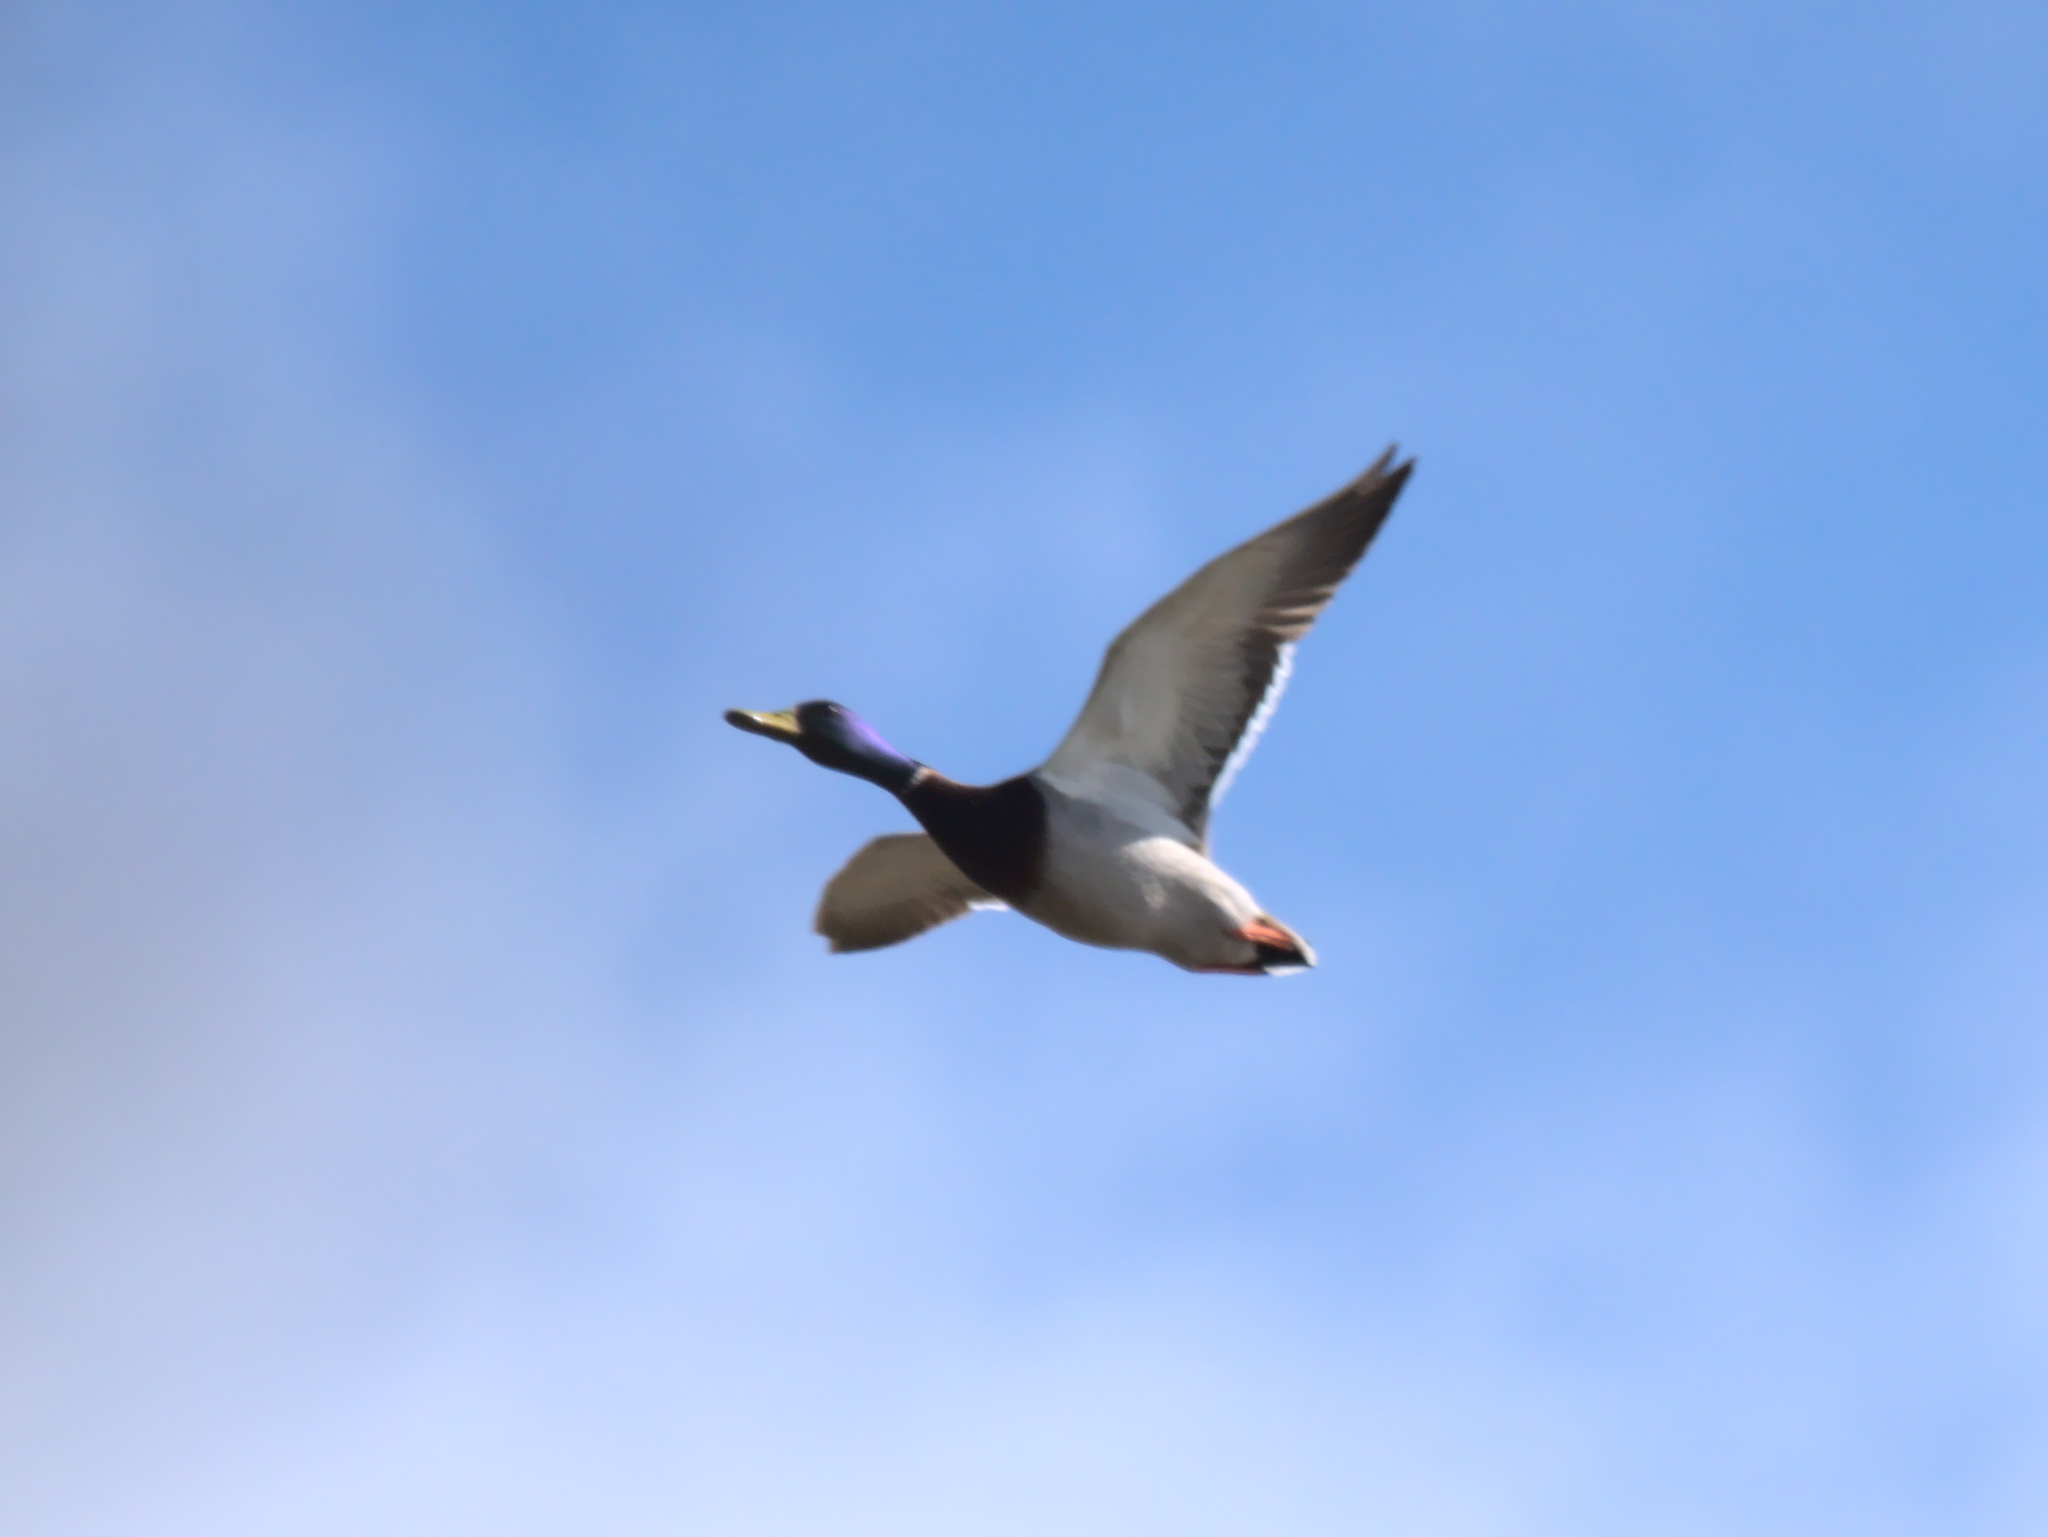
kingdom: Animalia
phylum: Chordata
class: Aves
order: Anseriformes
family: Anatidae
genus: Anas
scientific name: Anas platyrhynchos
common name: Mallard
